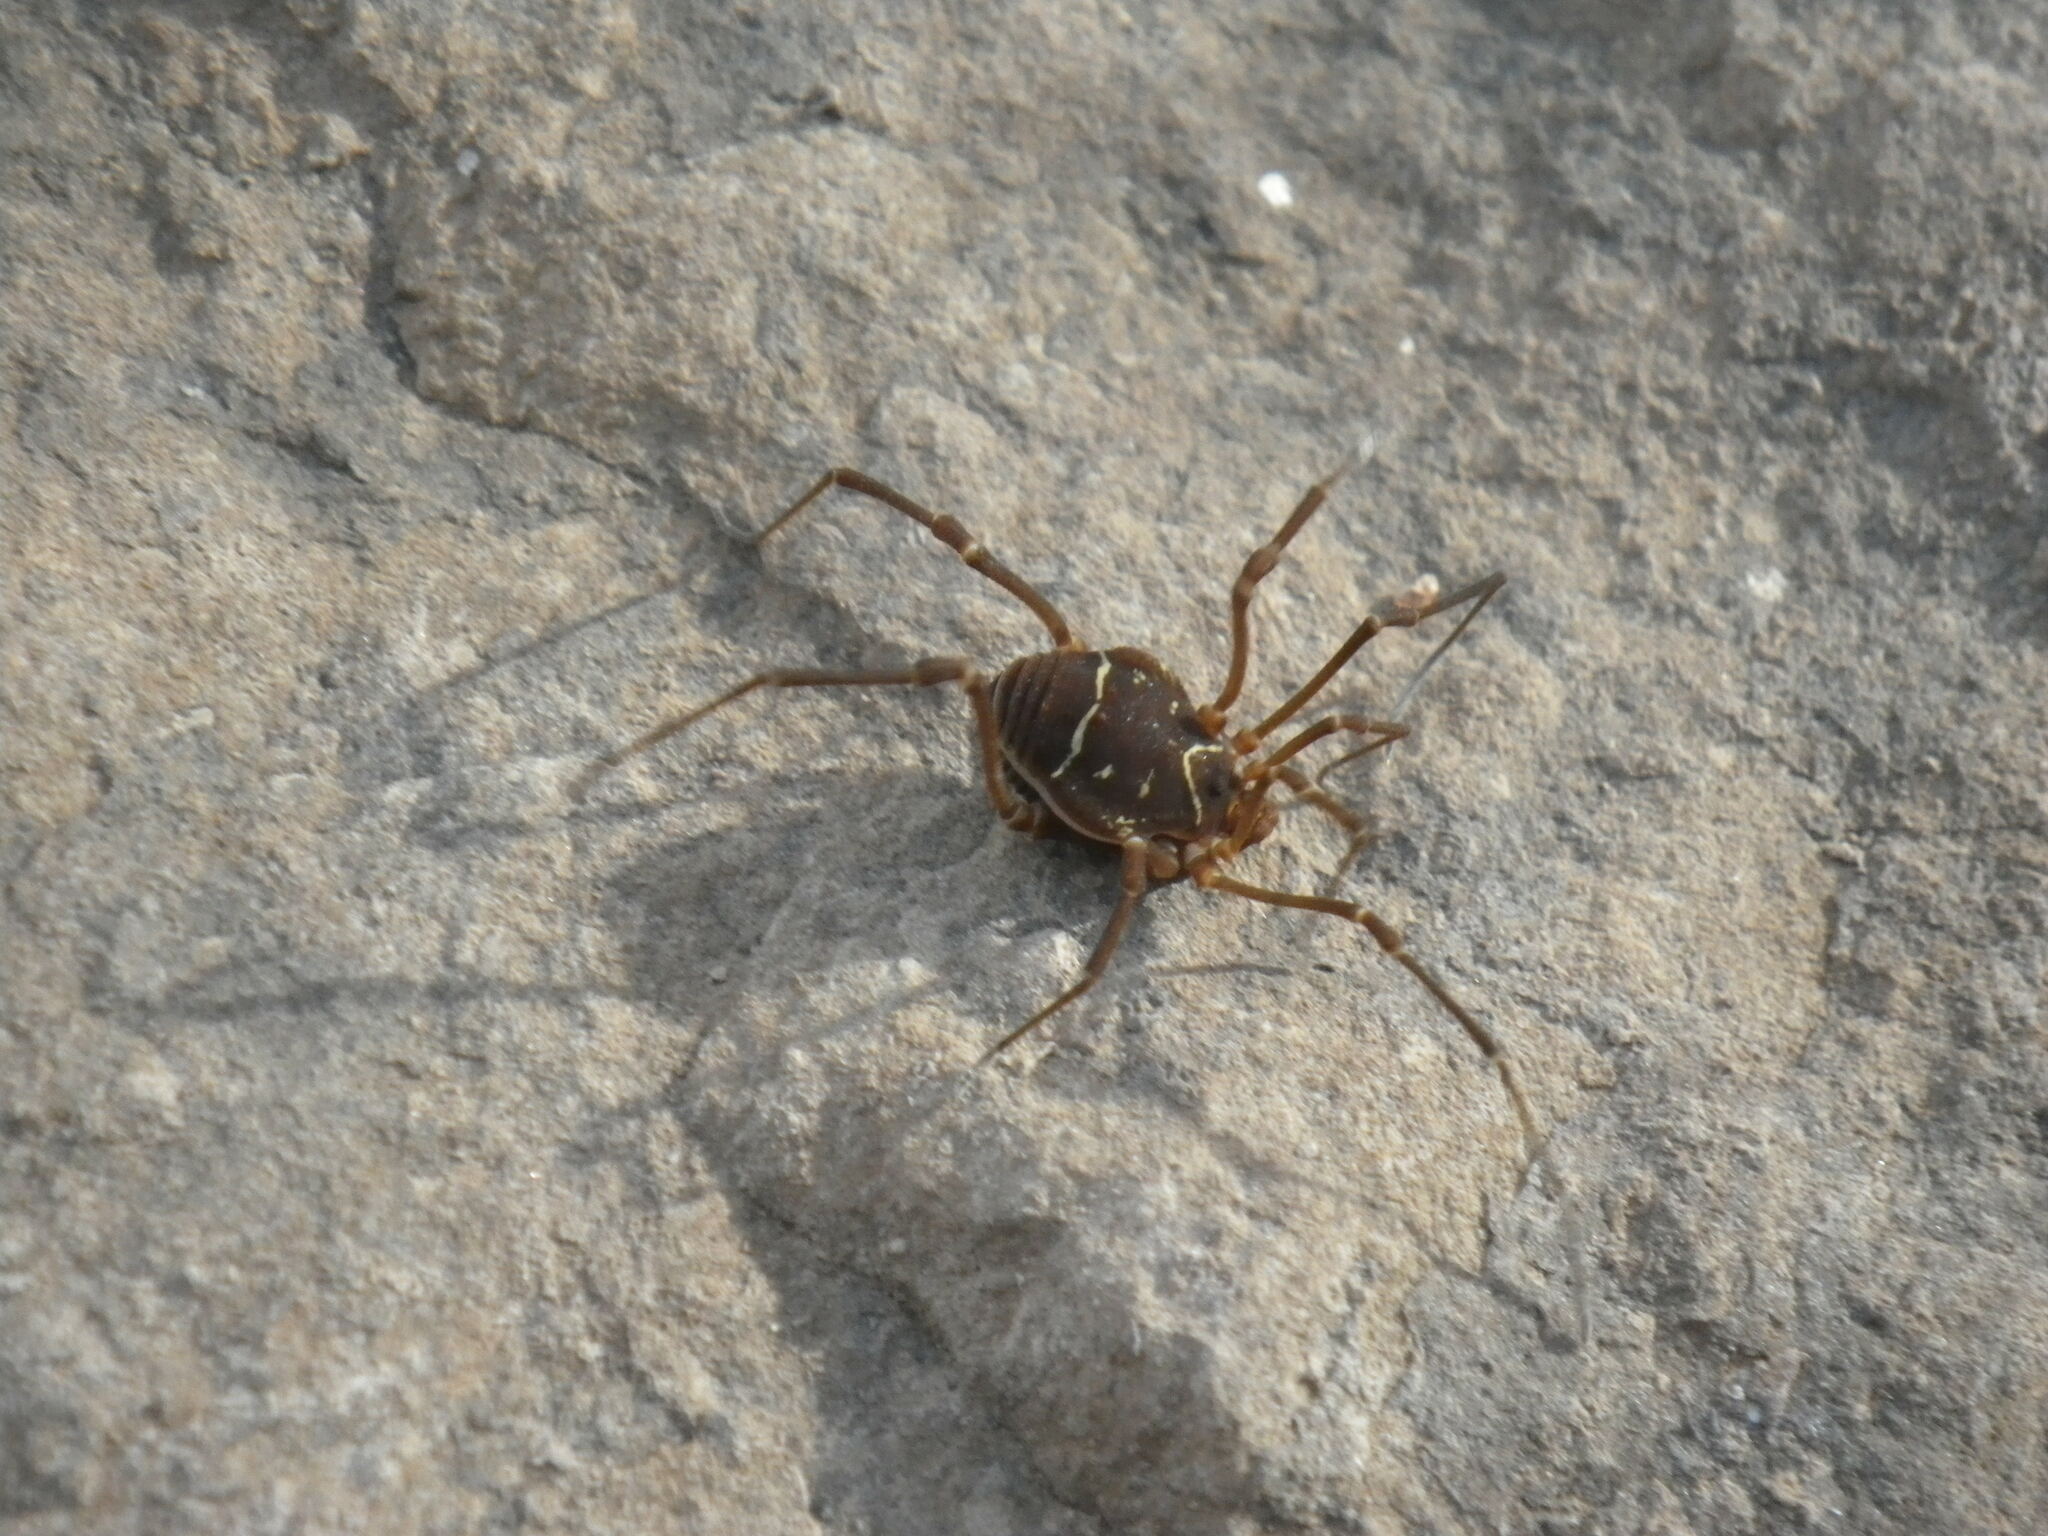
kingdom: Animalia
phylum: Arthropoda
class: Arachnida
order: Opiliones
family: Cosmetidae
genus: Libitioides
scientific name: Libitioides sayi
